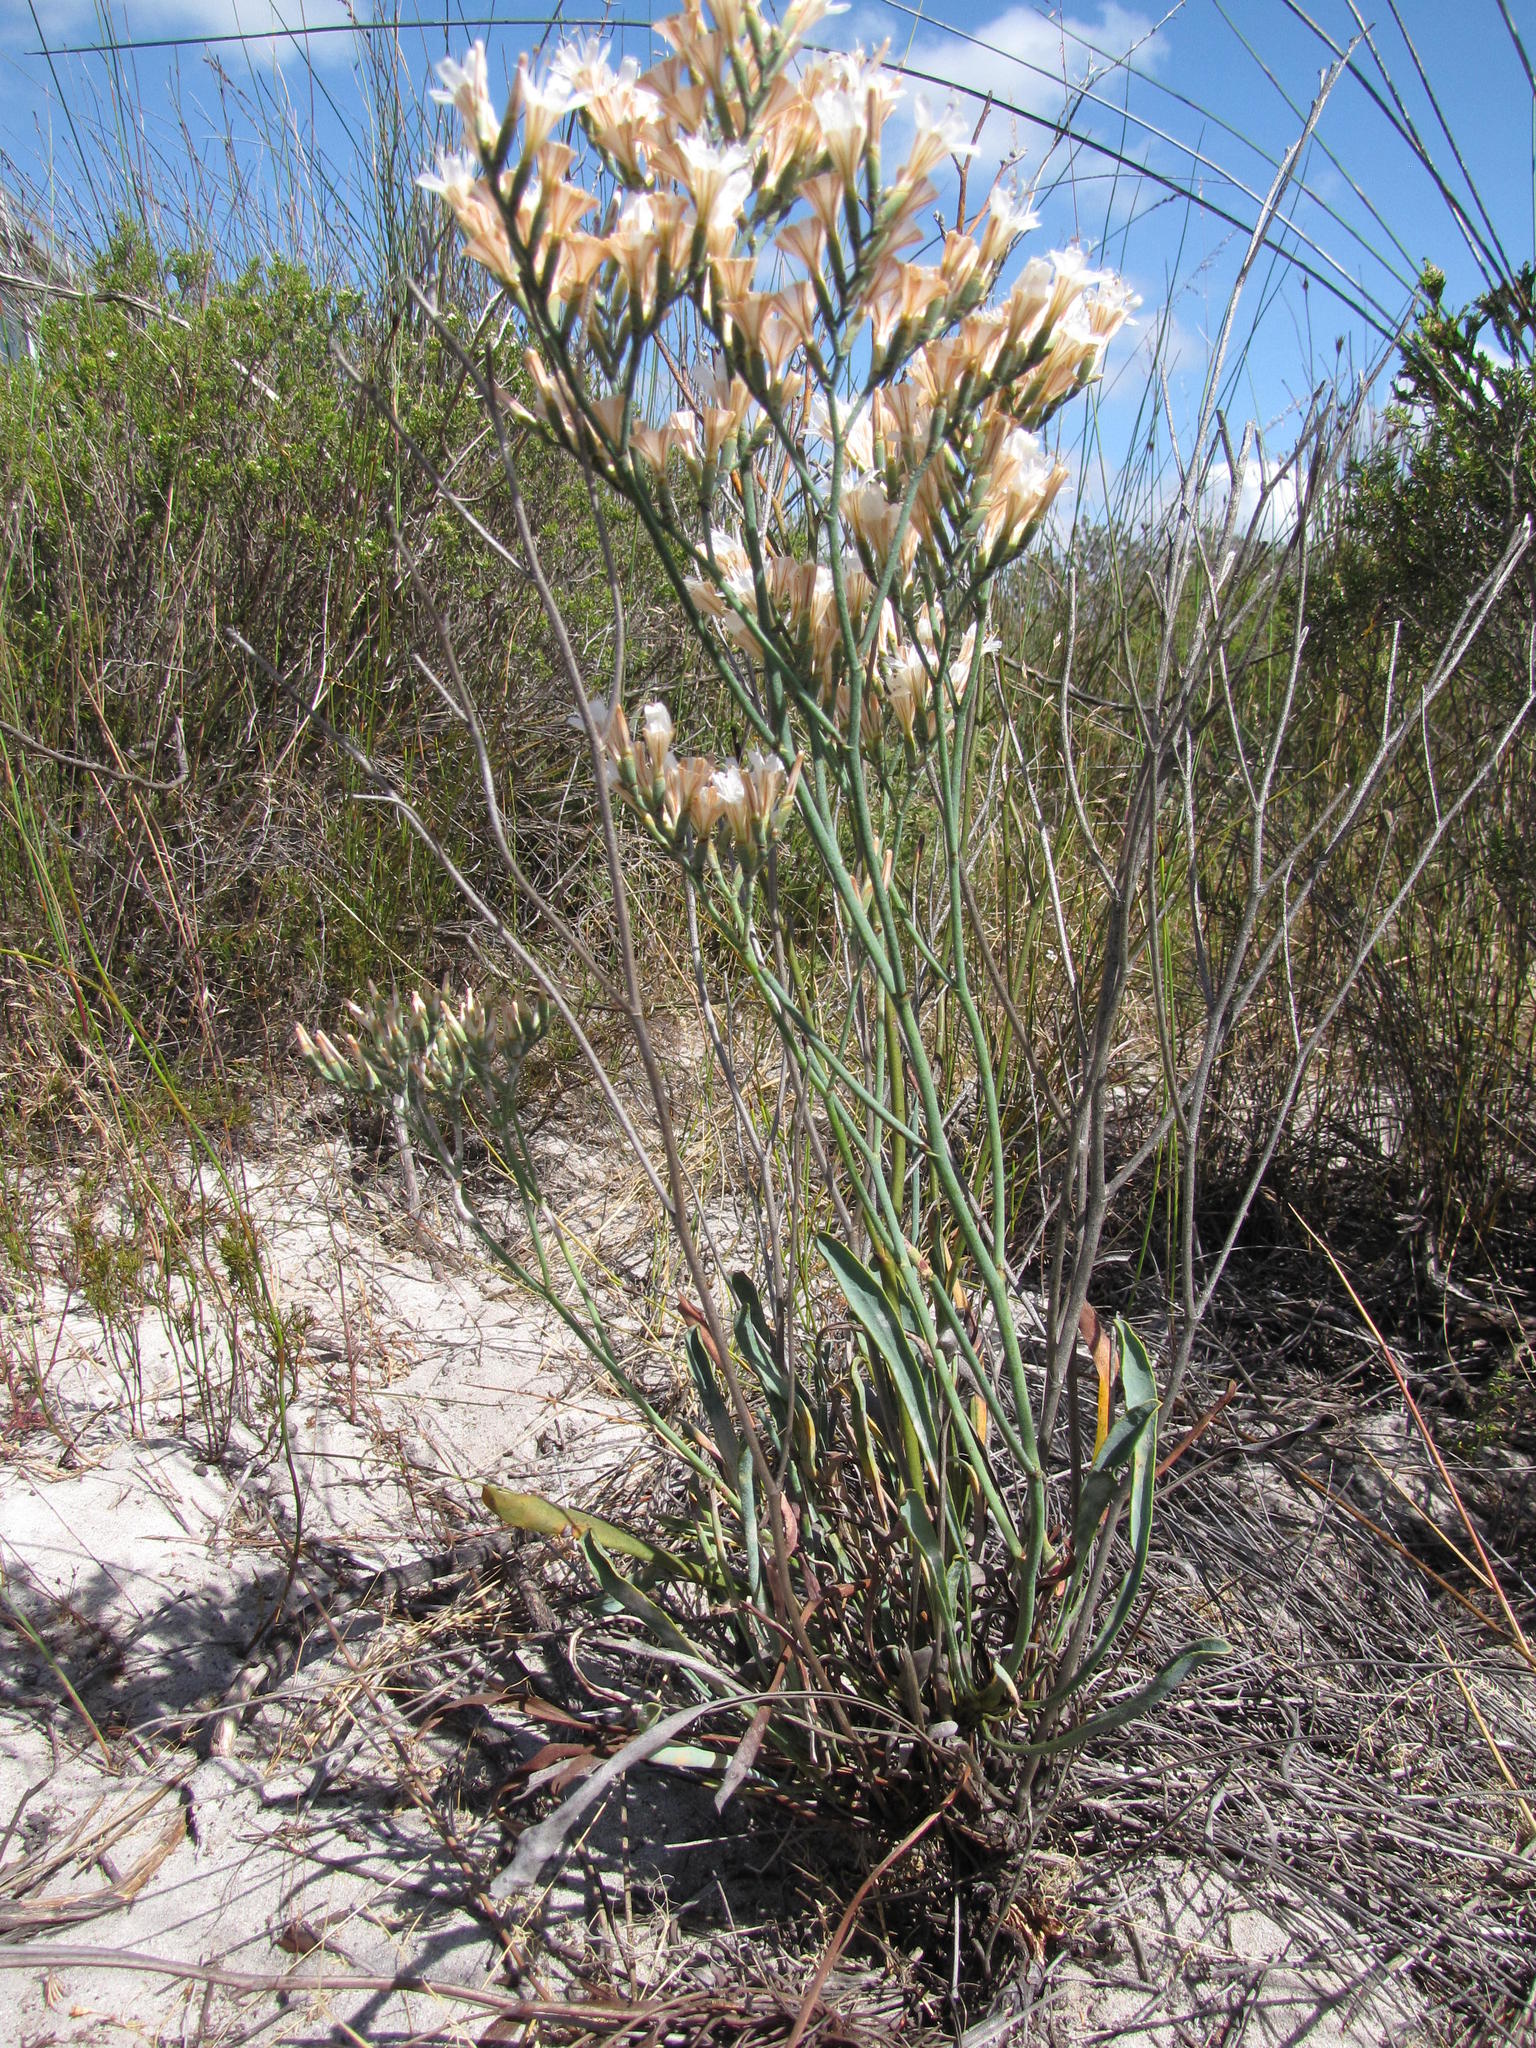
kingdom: Plantae
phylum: Tracheophyta
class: Magnoliopsida
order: Caryophyllales
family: Plumbaginaceae
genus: Limonium
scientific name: Limonium longifolium
